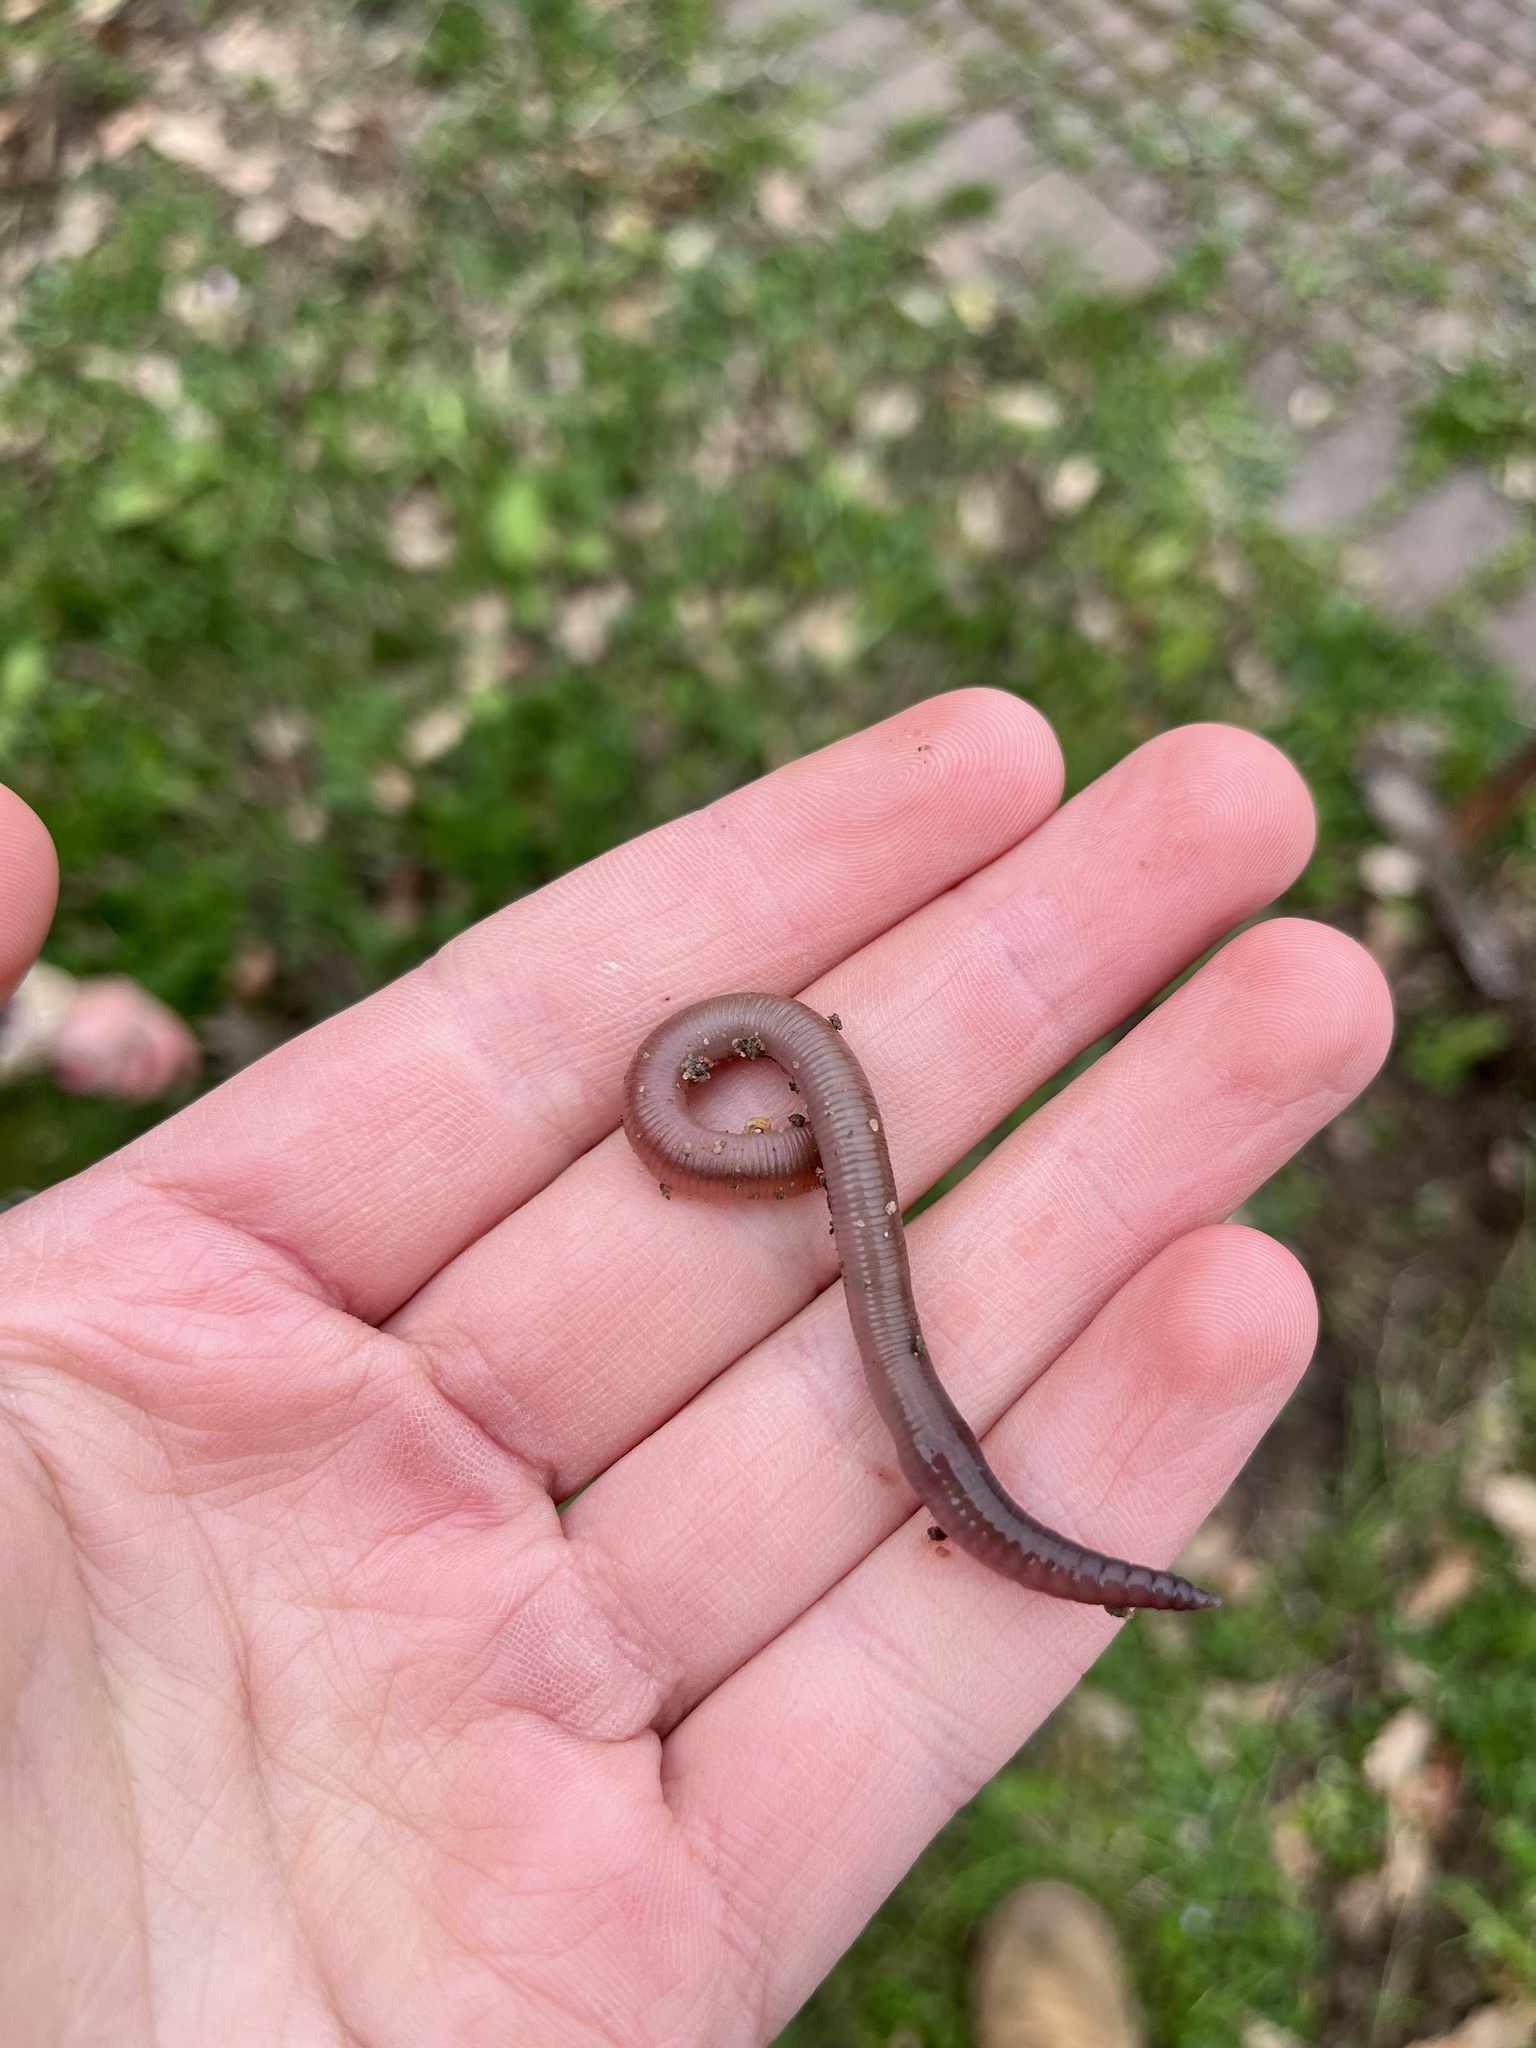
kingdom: Animalia
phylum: Annelida
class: Clitellata
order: Crassiclitellata
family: Lumbricidae
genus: Lumbricus
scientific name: Lumbricus terrestris
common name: Common earthworm
